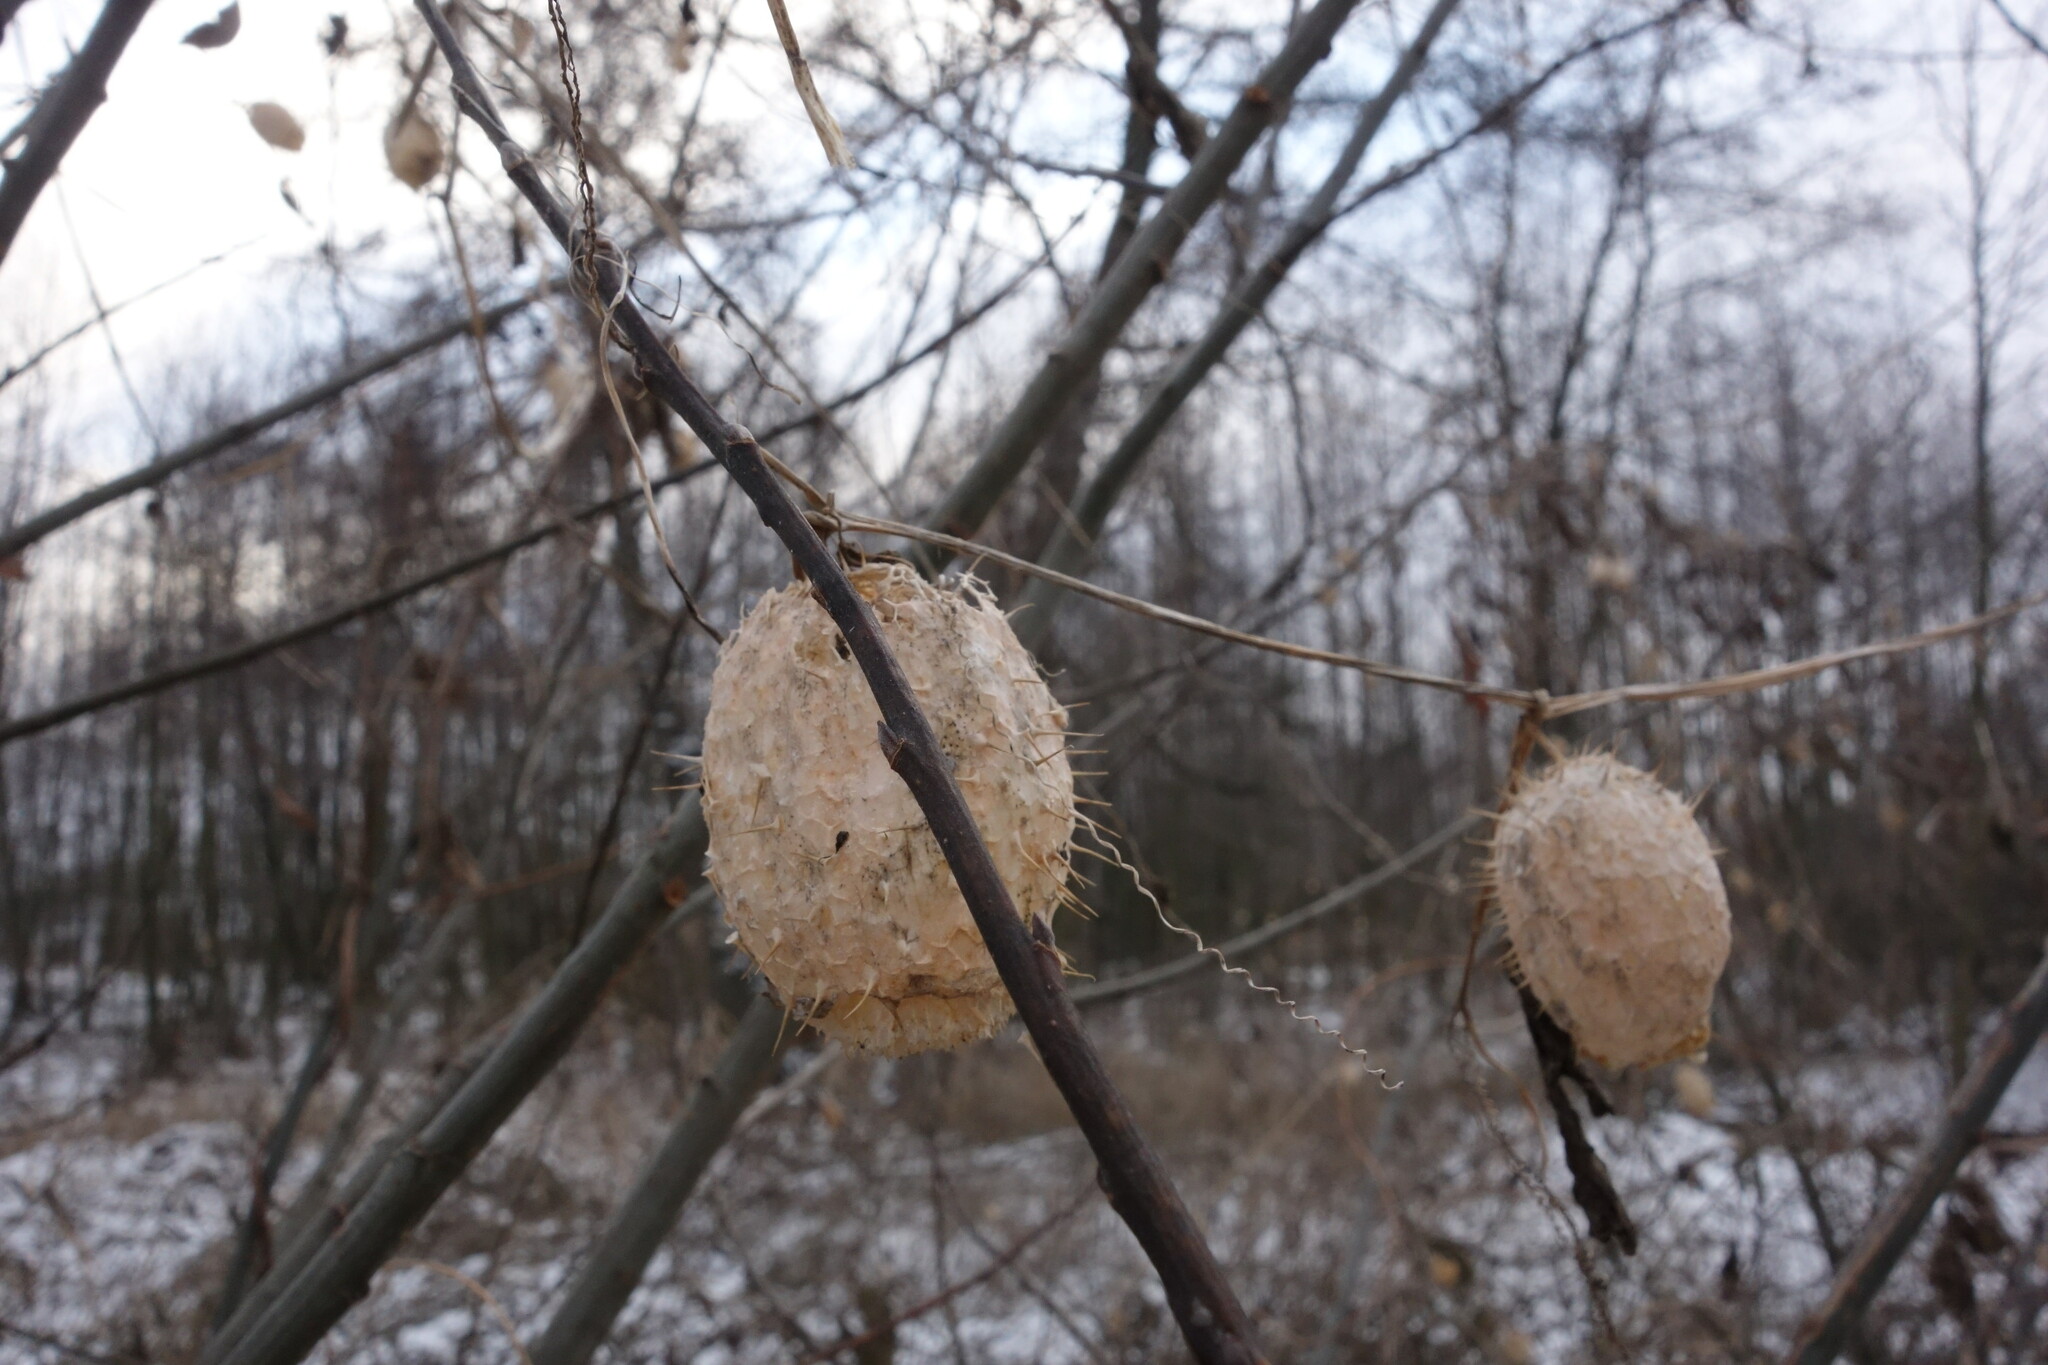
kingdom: Plantae
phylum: Tracheophyta
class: Magnoliopsida
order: Cucurbitales
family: Cucurbitaceae
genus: Echinocystis
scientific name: Echinocystis lobata
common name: Wild cucumber
